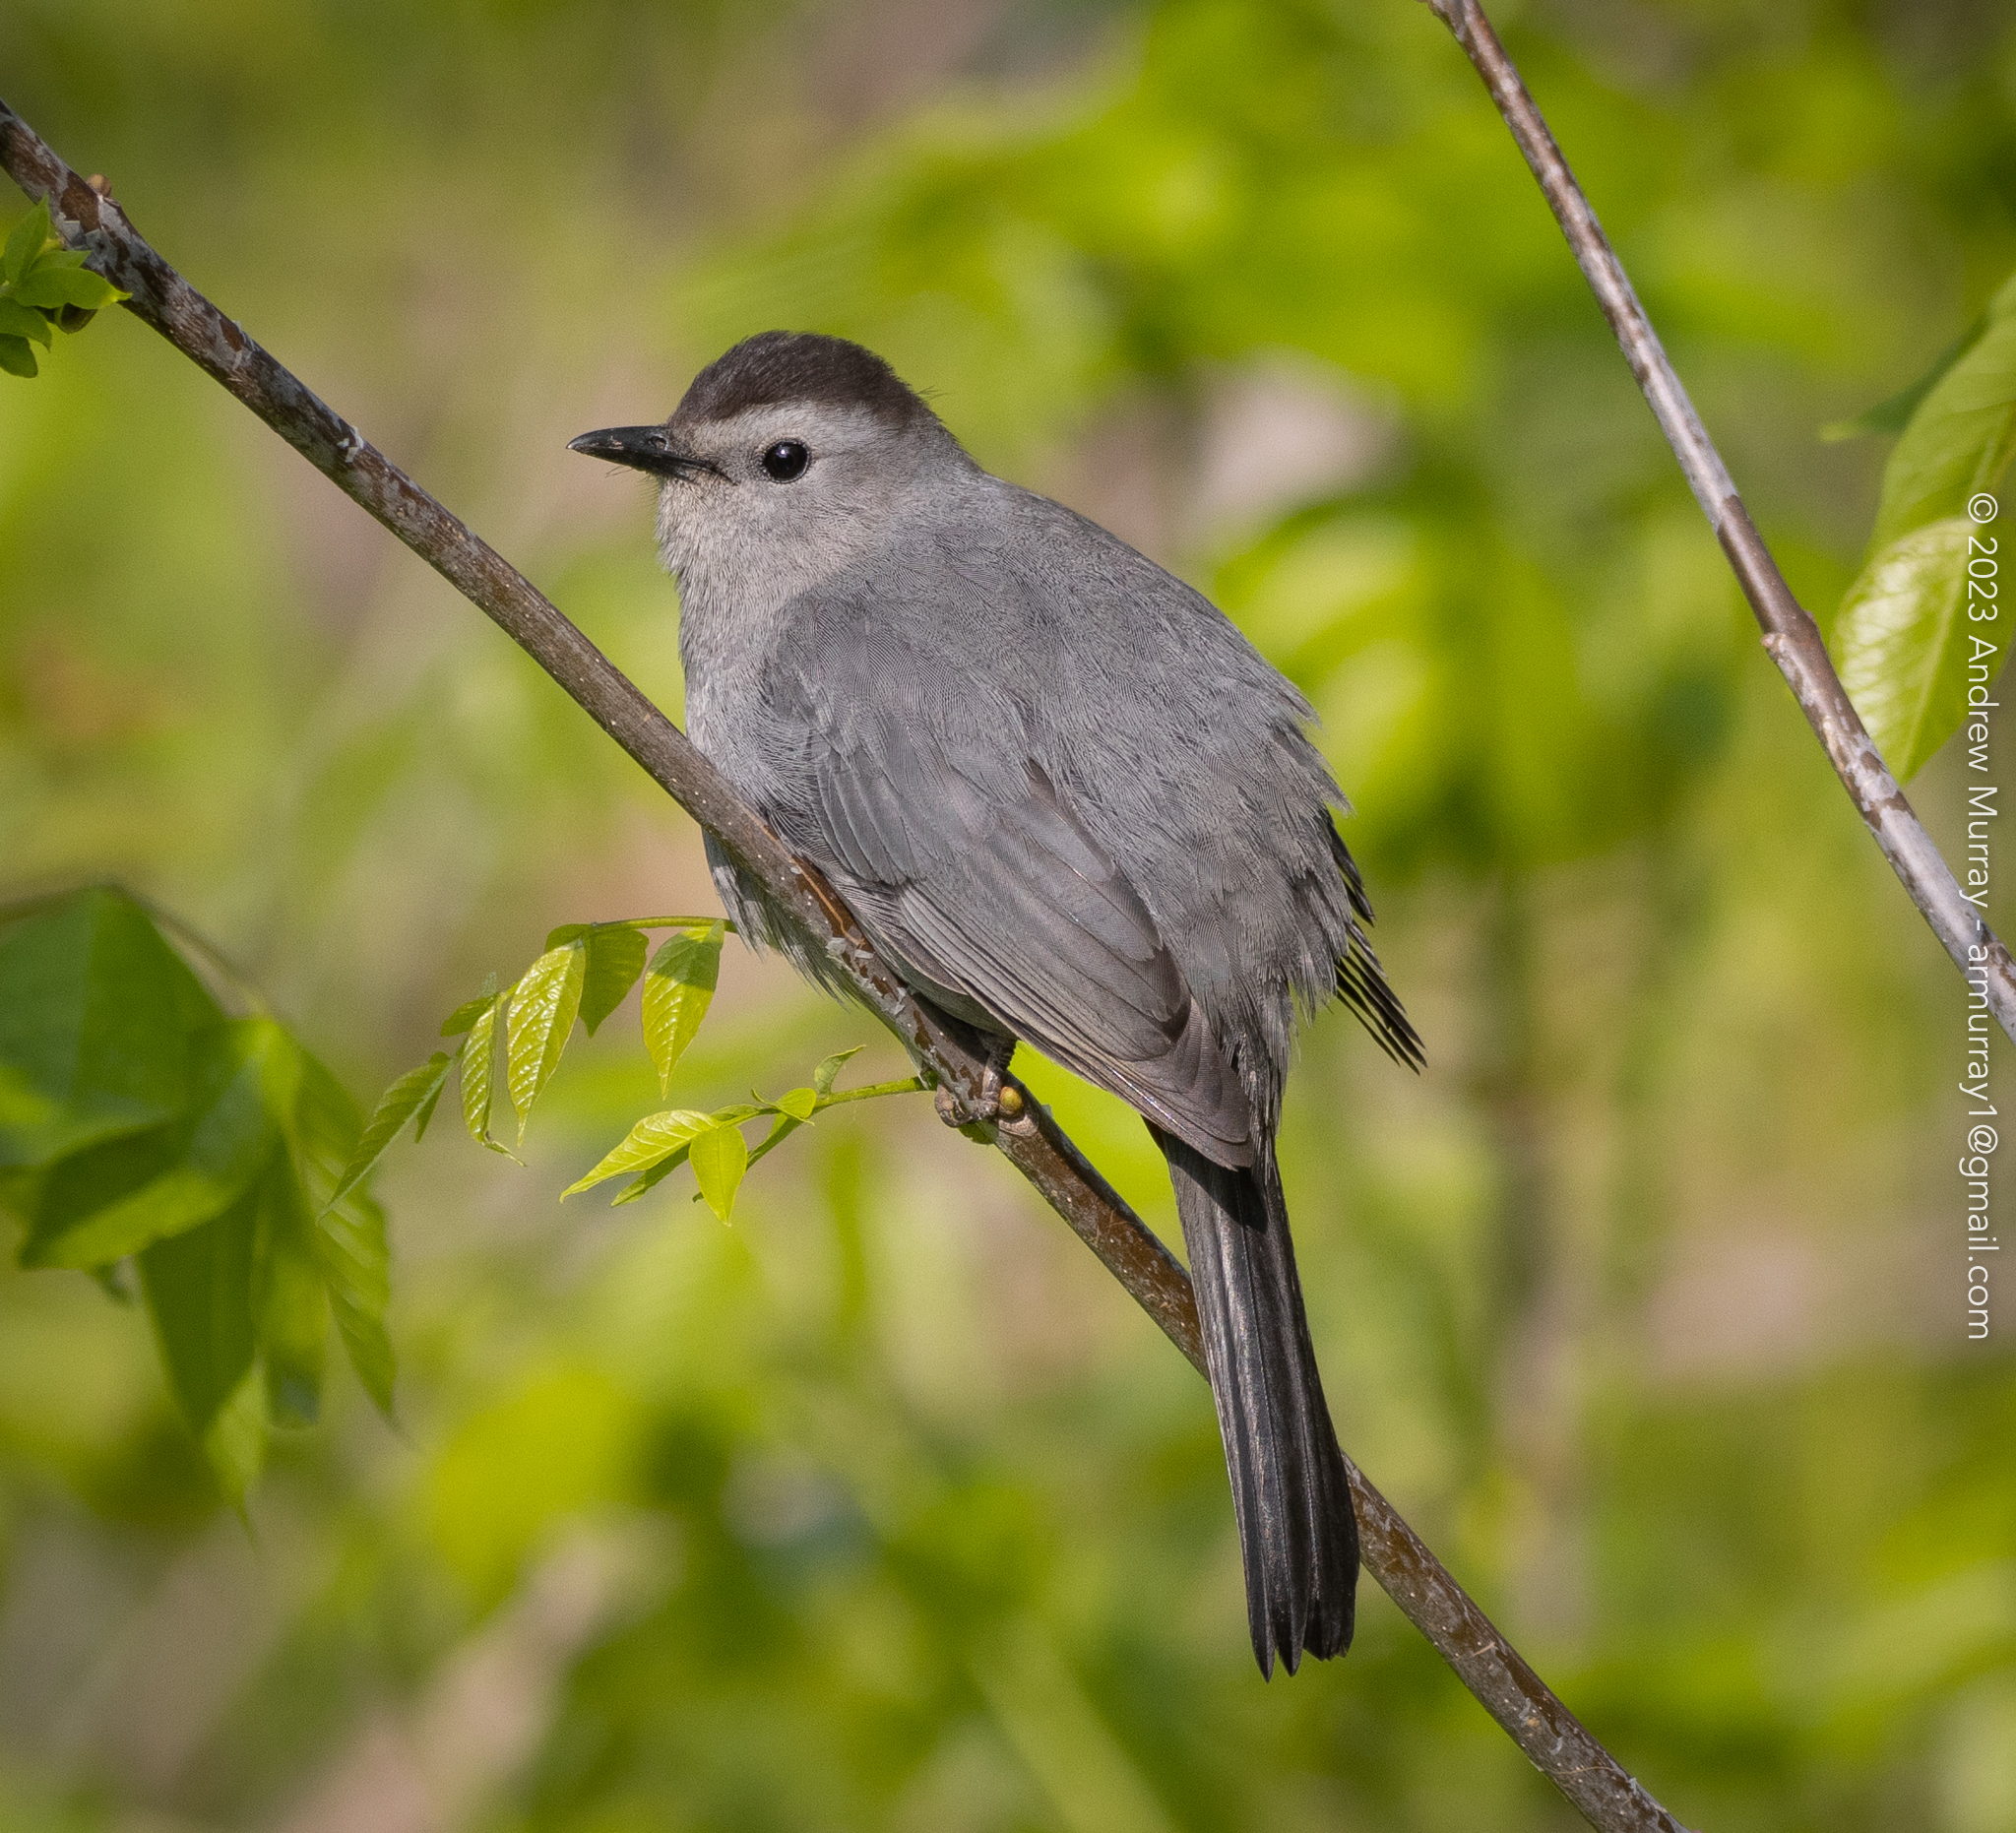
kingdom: Animalia
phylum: Chordata
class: Aves
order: Passeriformes
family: Mimidae
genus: Dumetella
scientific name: Dumetella carolinensis
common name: Gray catbird
